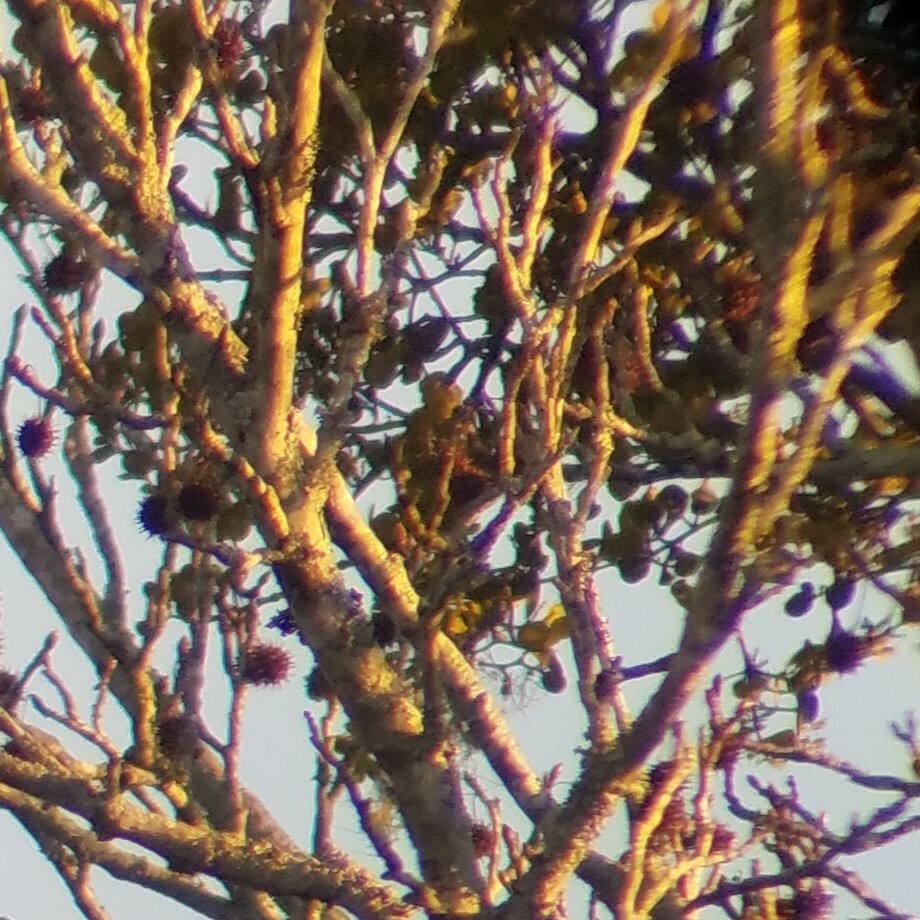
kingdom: Plantae
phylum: Tracheophyta
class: Magnoliopsida
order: Santalales
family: Viscaceae
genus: Phoradendron
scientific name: Phoradendron leucarpum
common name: Pacific mistletoe
